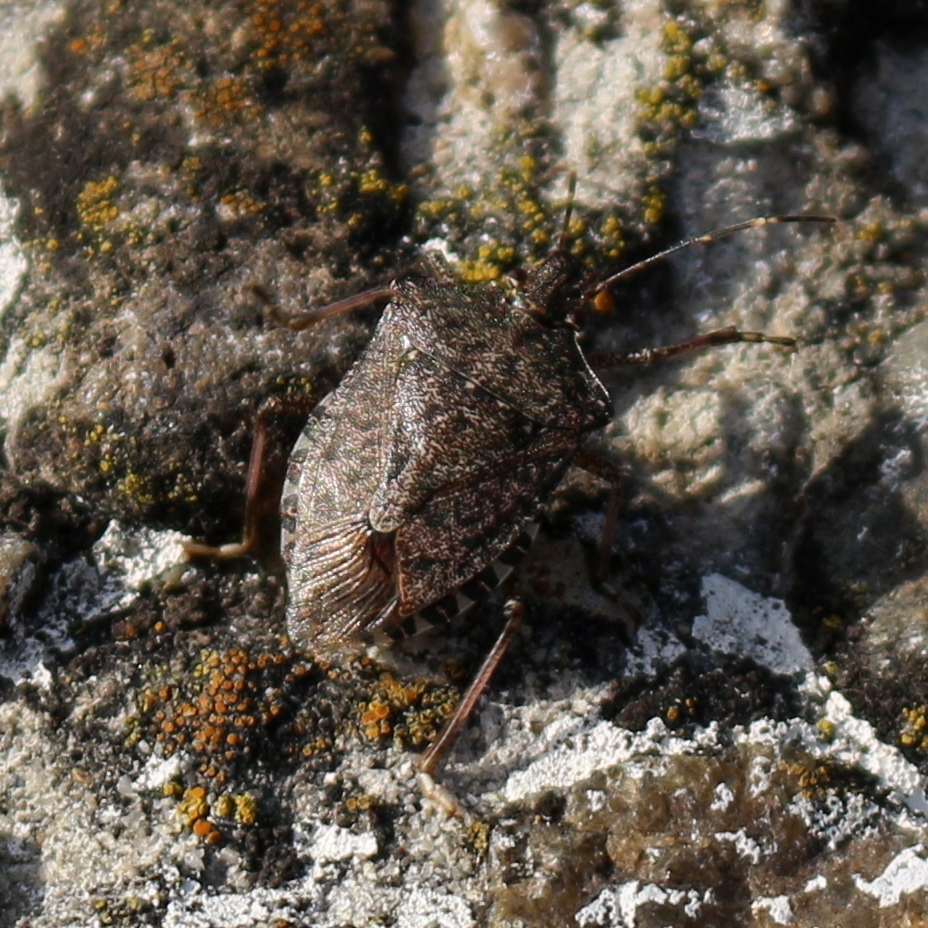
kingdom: Animalia
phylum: Arthropoda
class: Insecta
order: Hemiptera
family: Pentatomidae
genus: Halyomorpha
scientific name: Halyomorpha halys
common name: Brown marmorated stink bug
